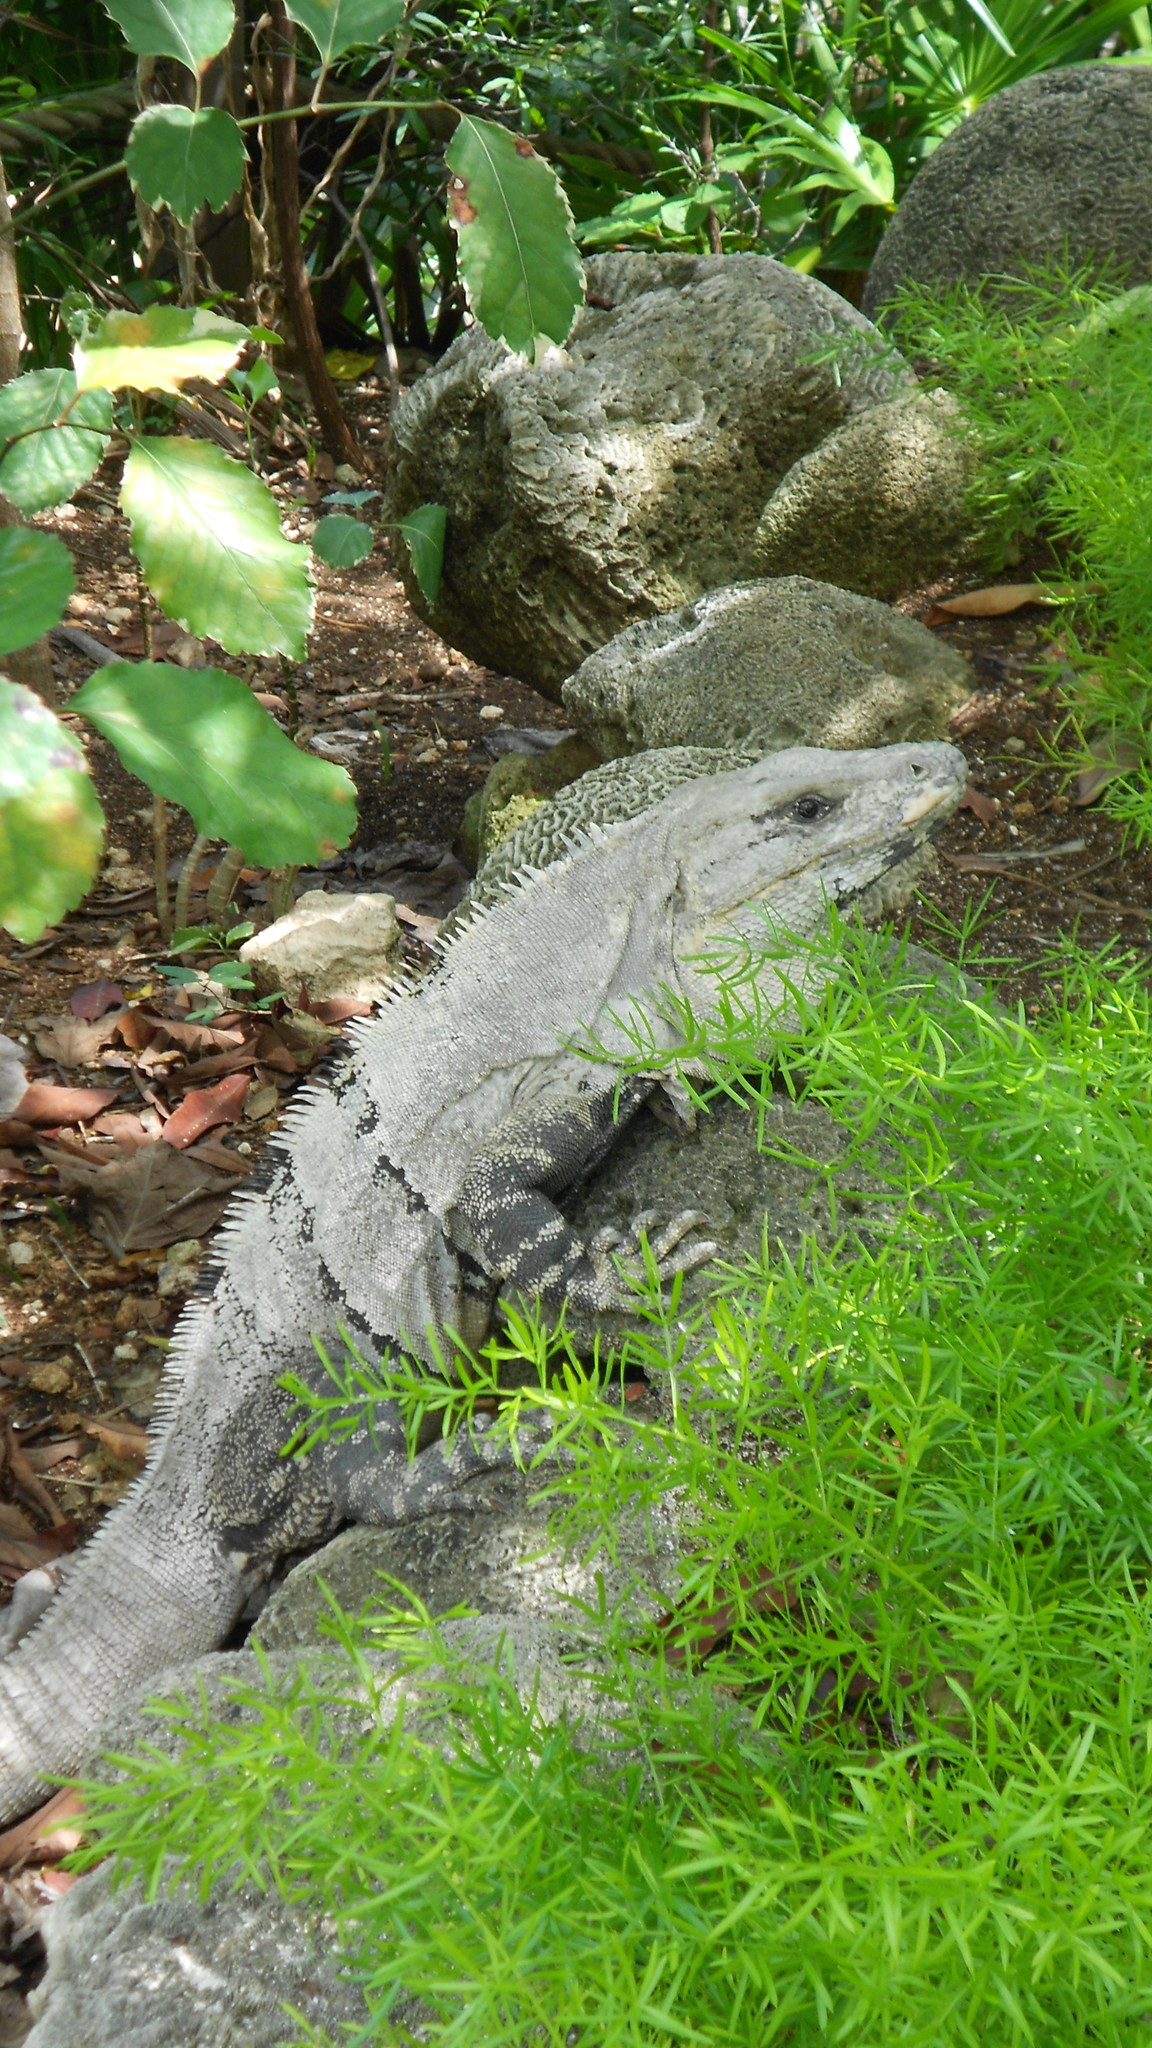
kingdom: Animalia
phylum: Chordata
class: Squamata
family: Iguanidae
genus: Ctenosaura
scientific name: Ctenosaura similis
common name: Black spiny-tailed iguana
